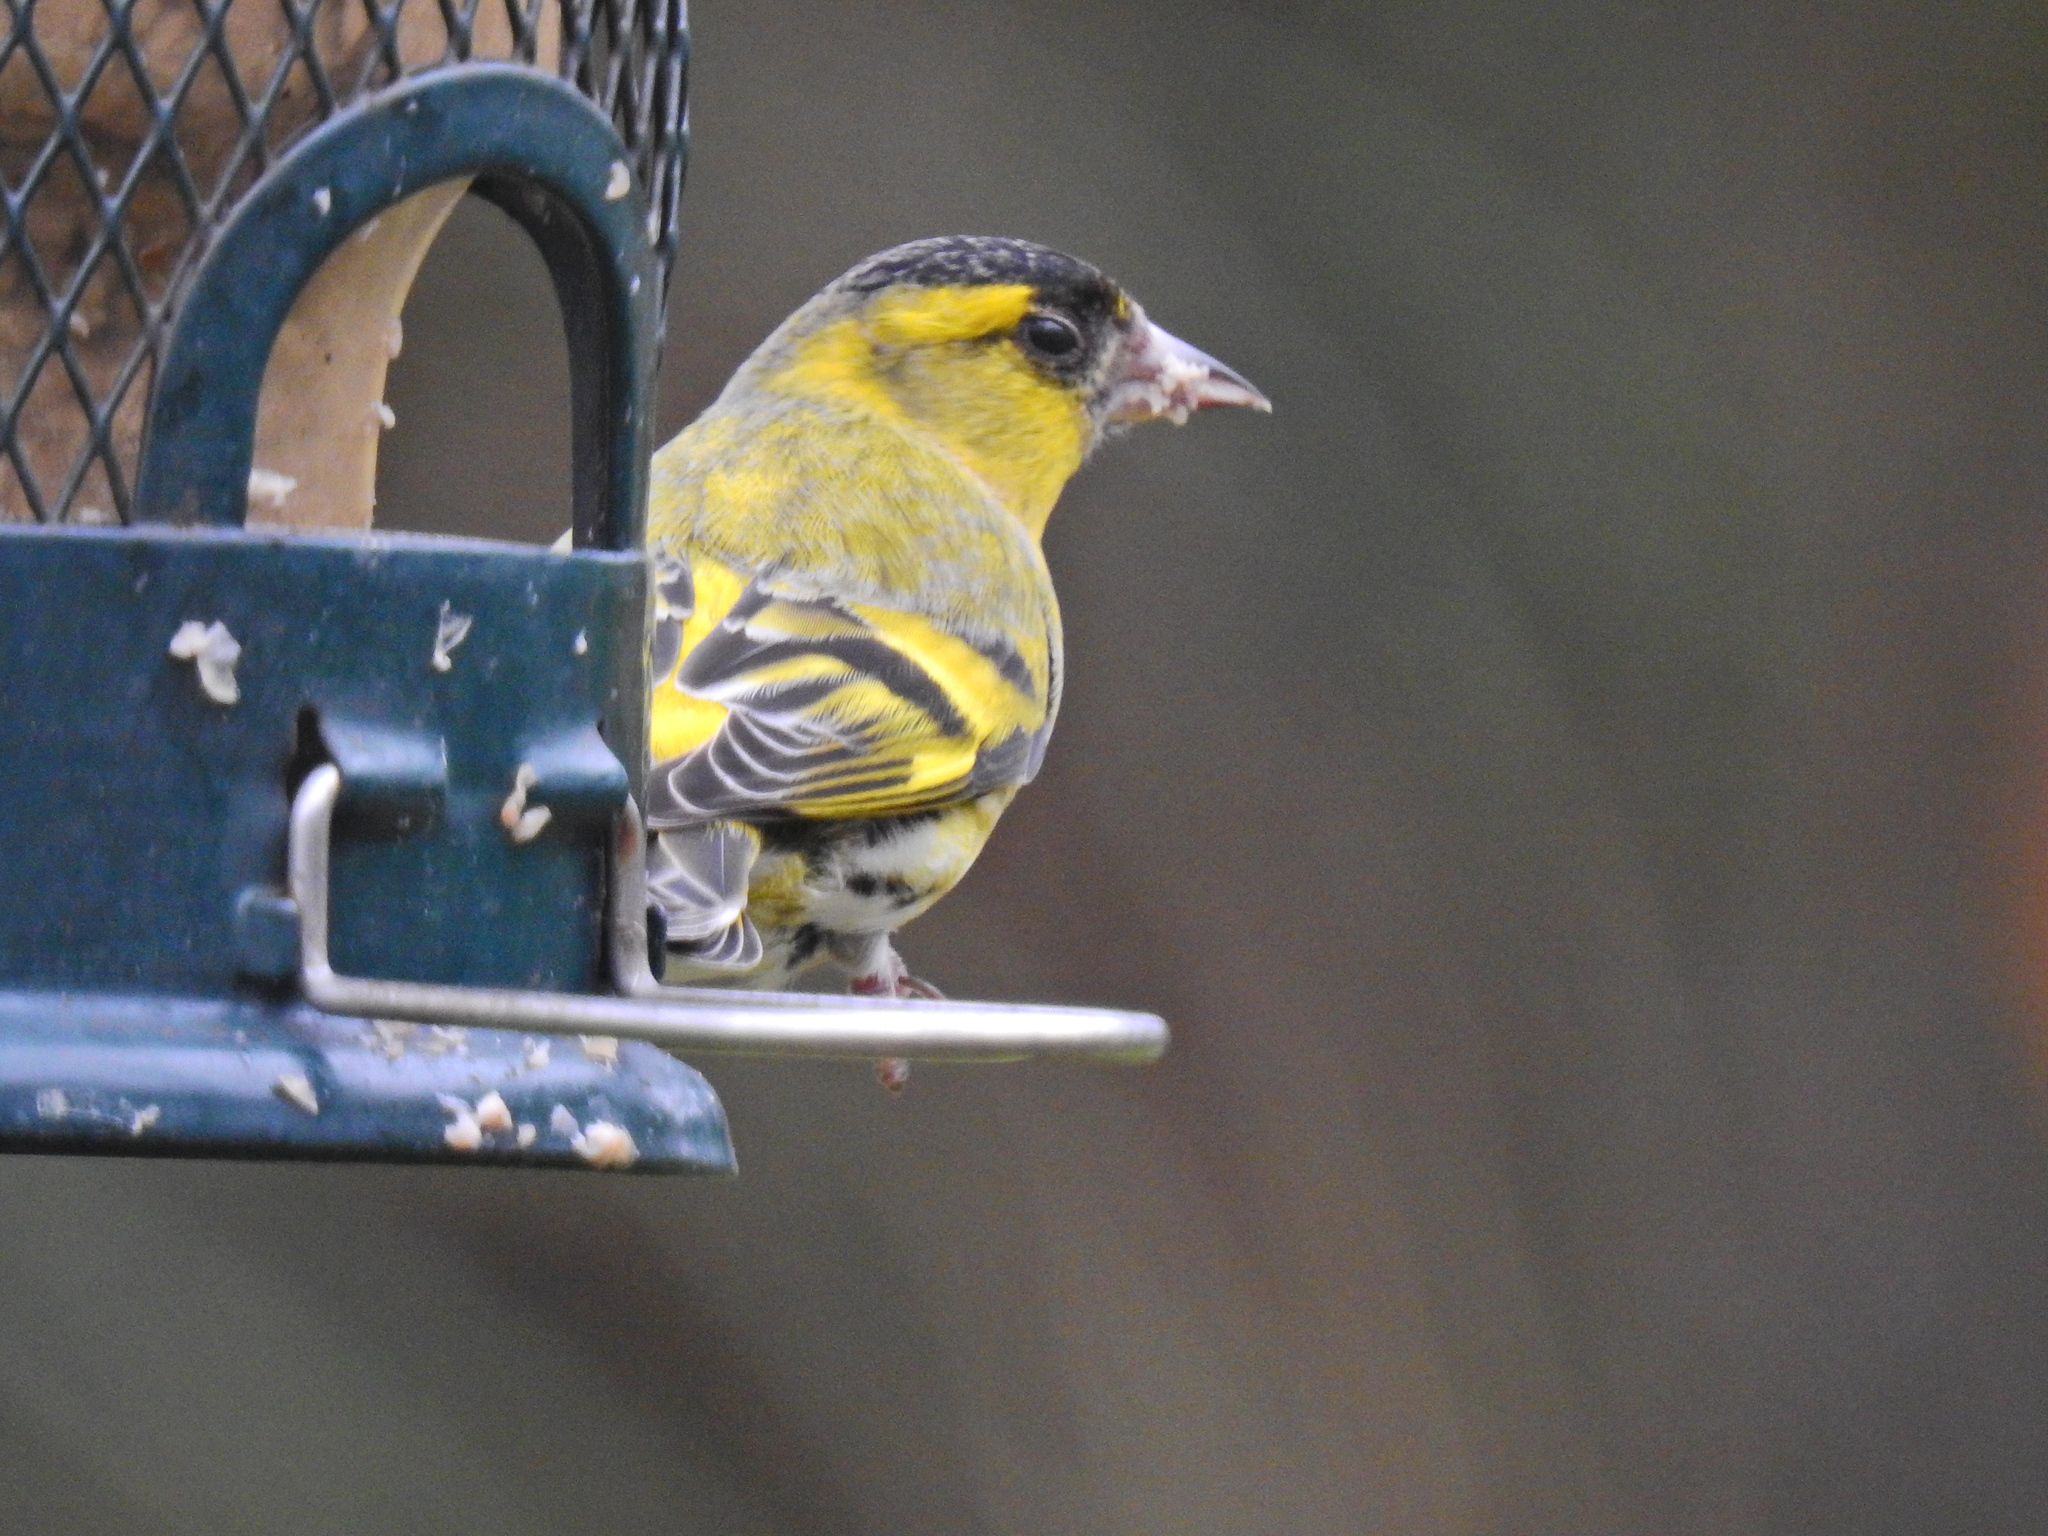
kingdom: Animalia
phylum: Chordata
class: Aves
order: Passeriformes
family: Fringillidae
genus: Spinus
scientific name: Spinus spinus
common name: Eurasian siskin
